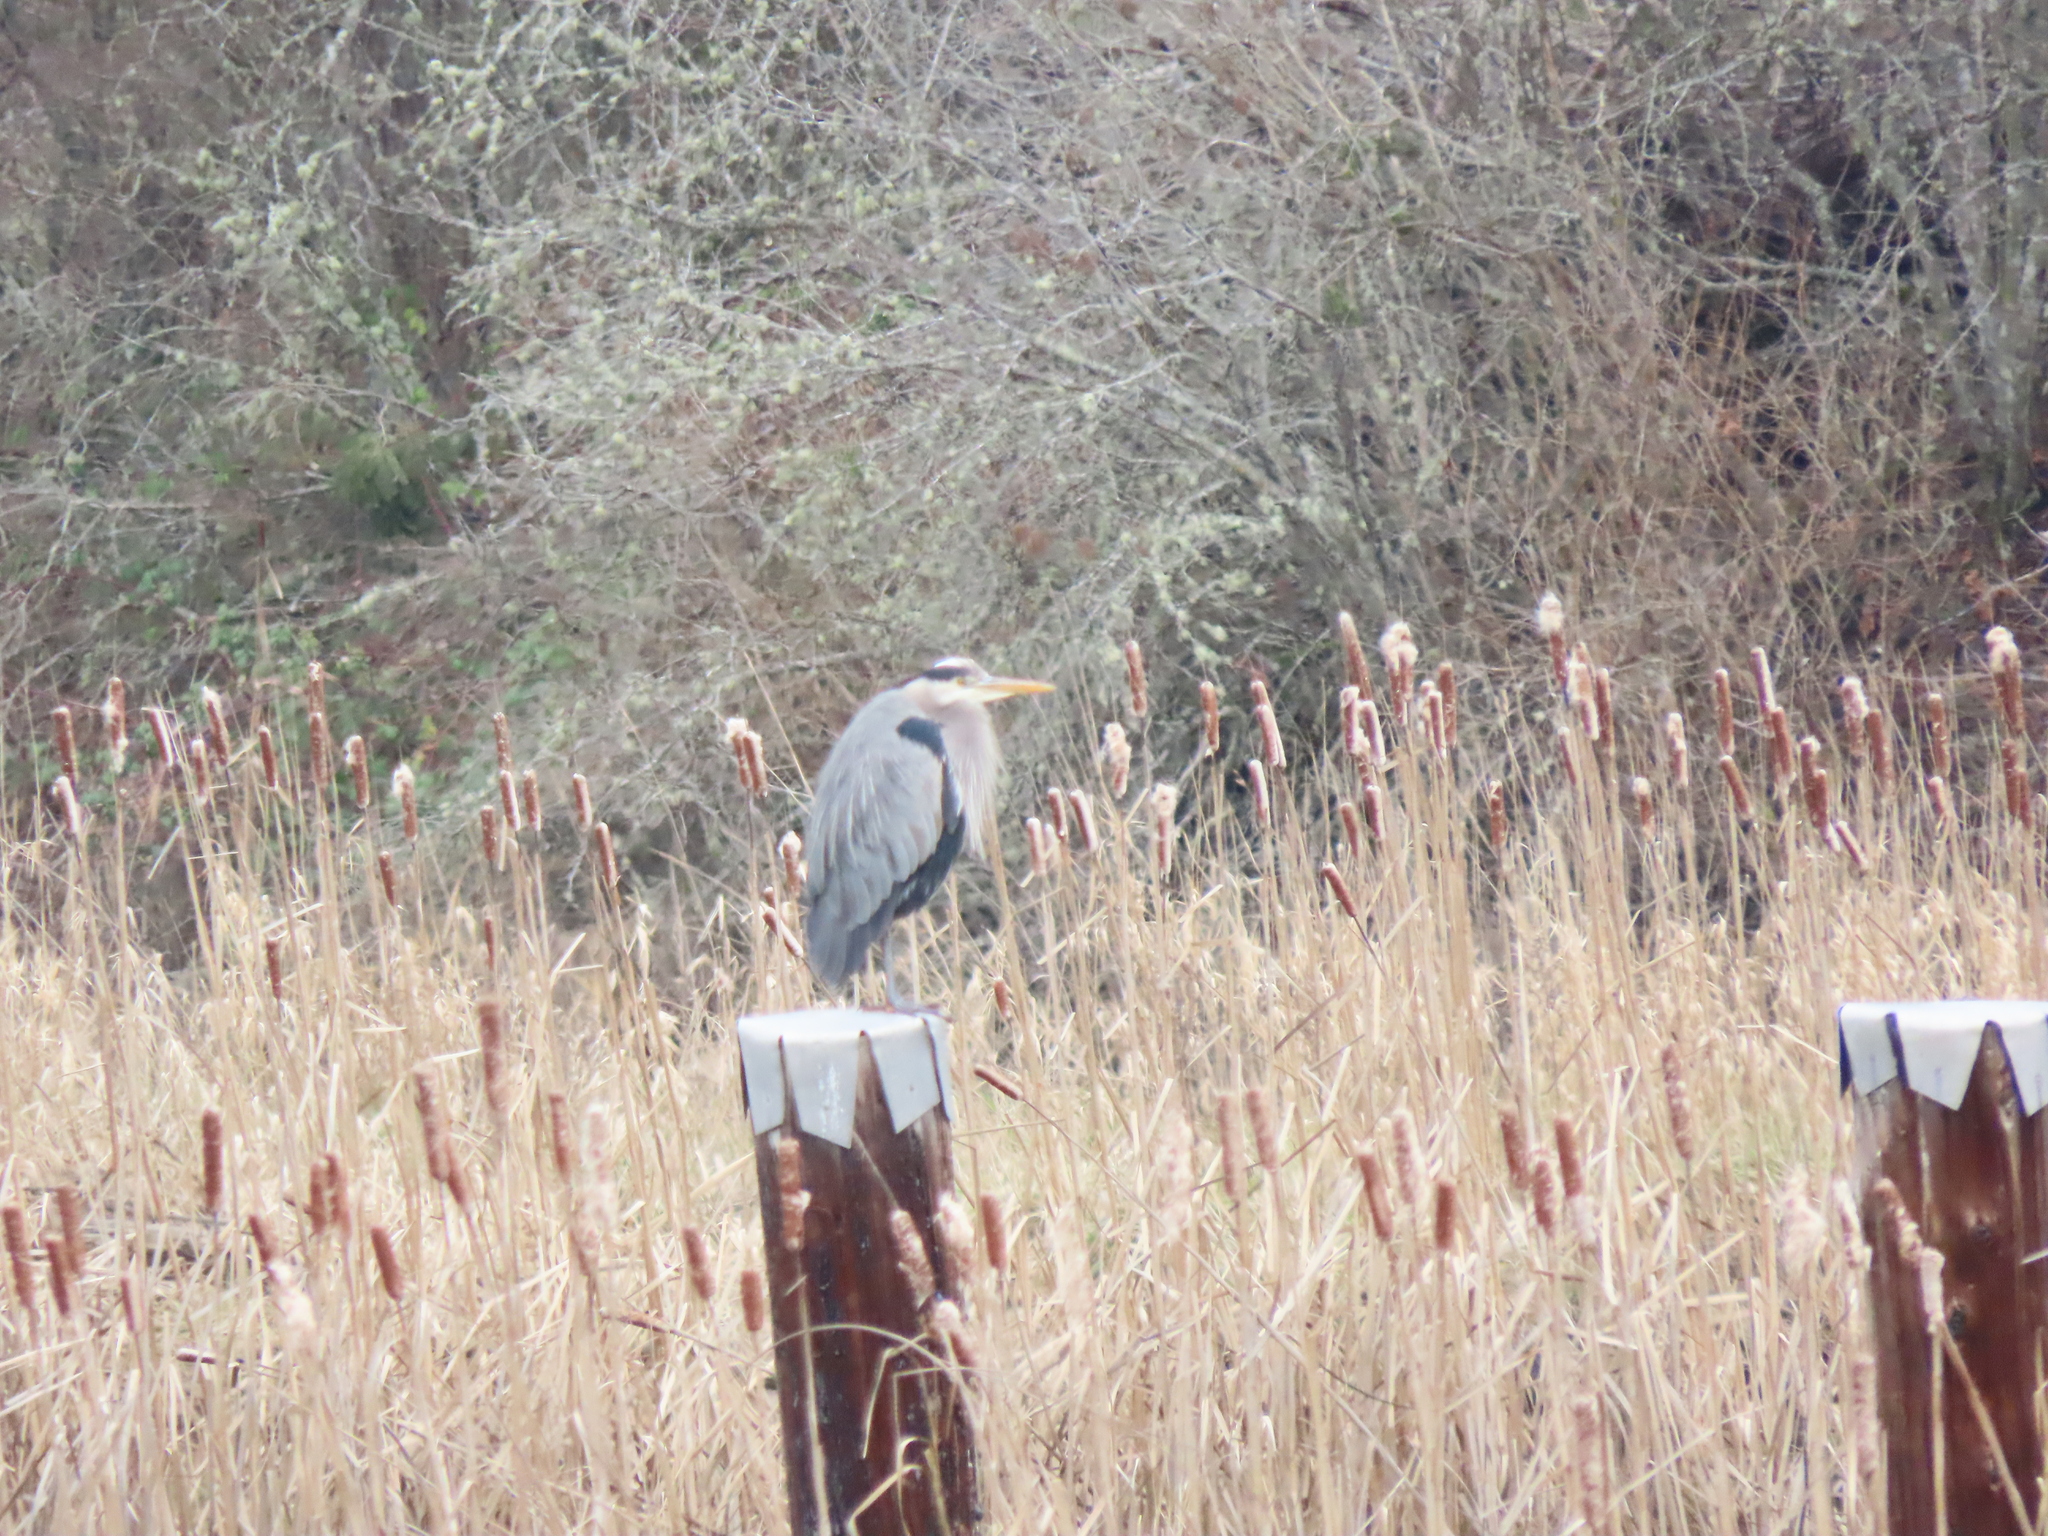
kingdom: Animalia
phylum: Chordata
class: Aves
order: Pelecaniformes
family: Ardeidae
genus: Ardea
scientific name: Ardea herodias
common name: Great blue heron
